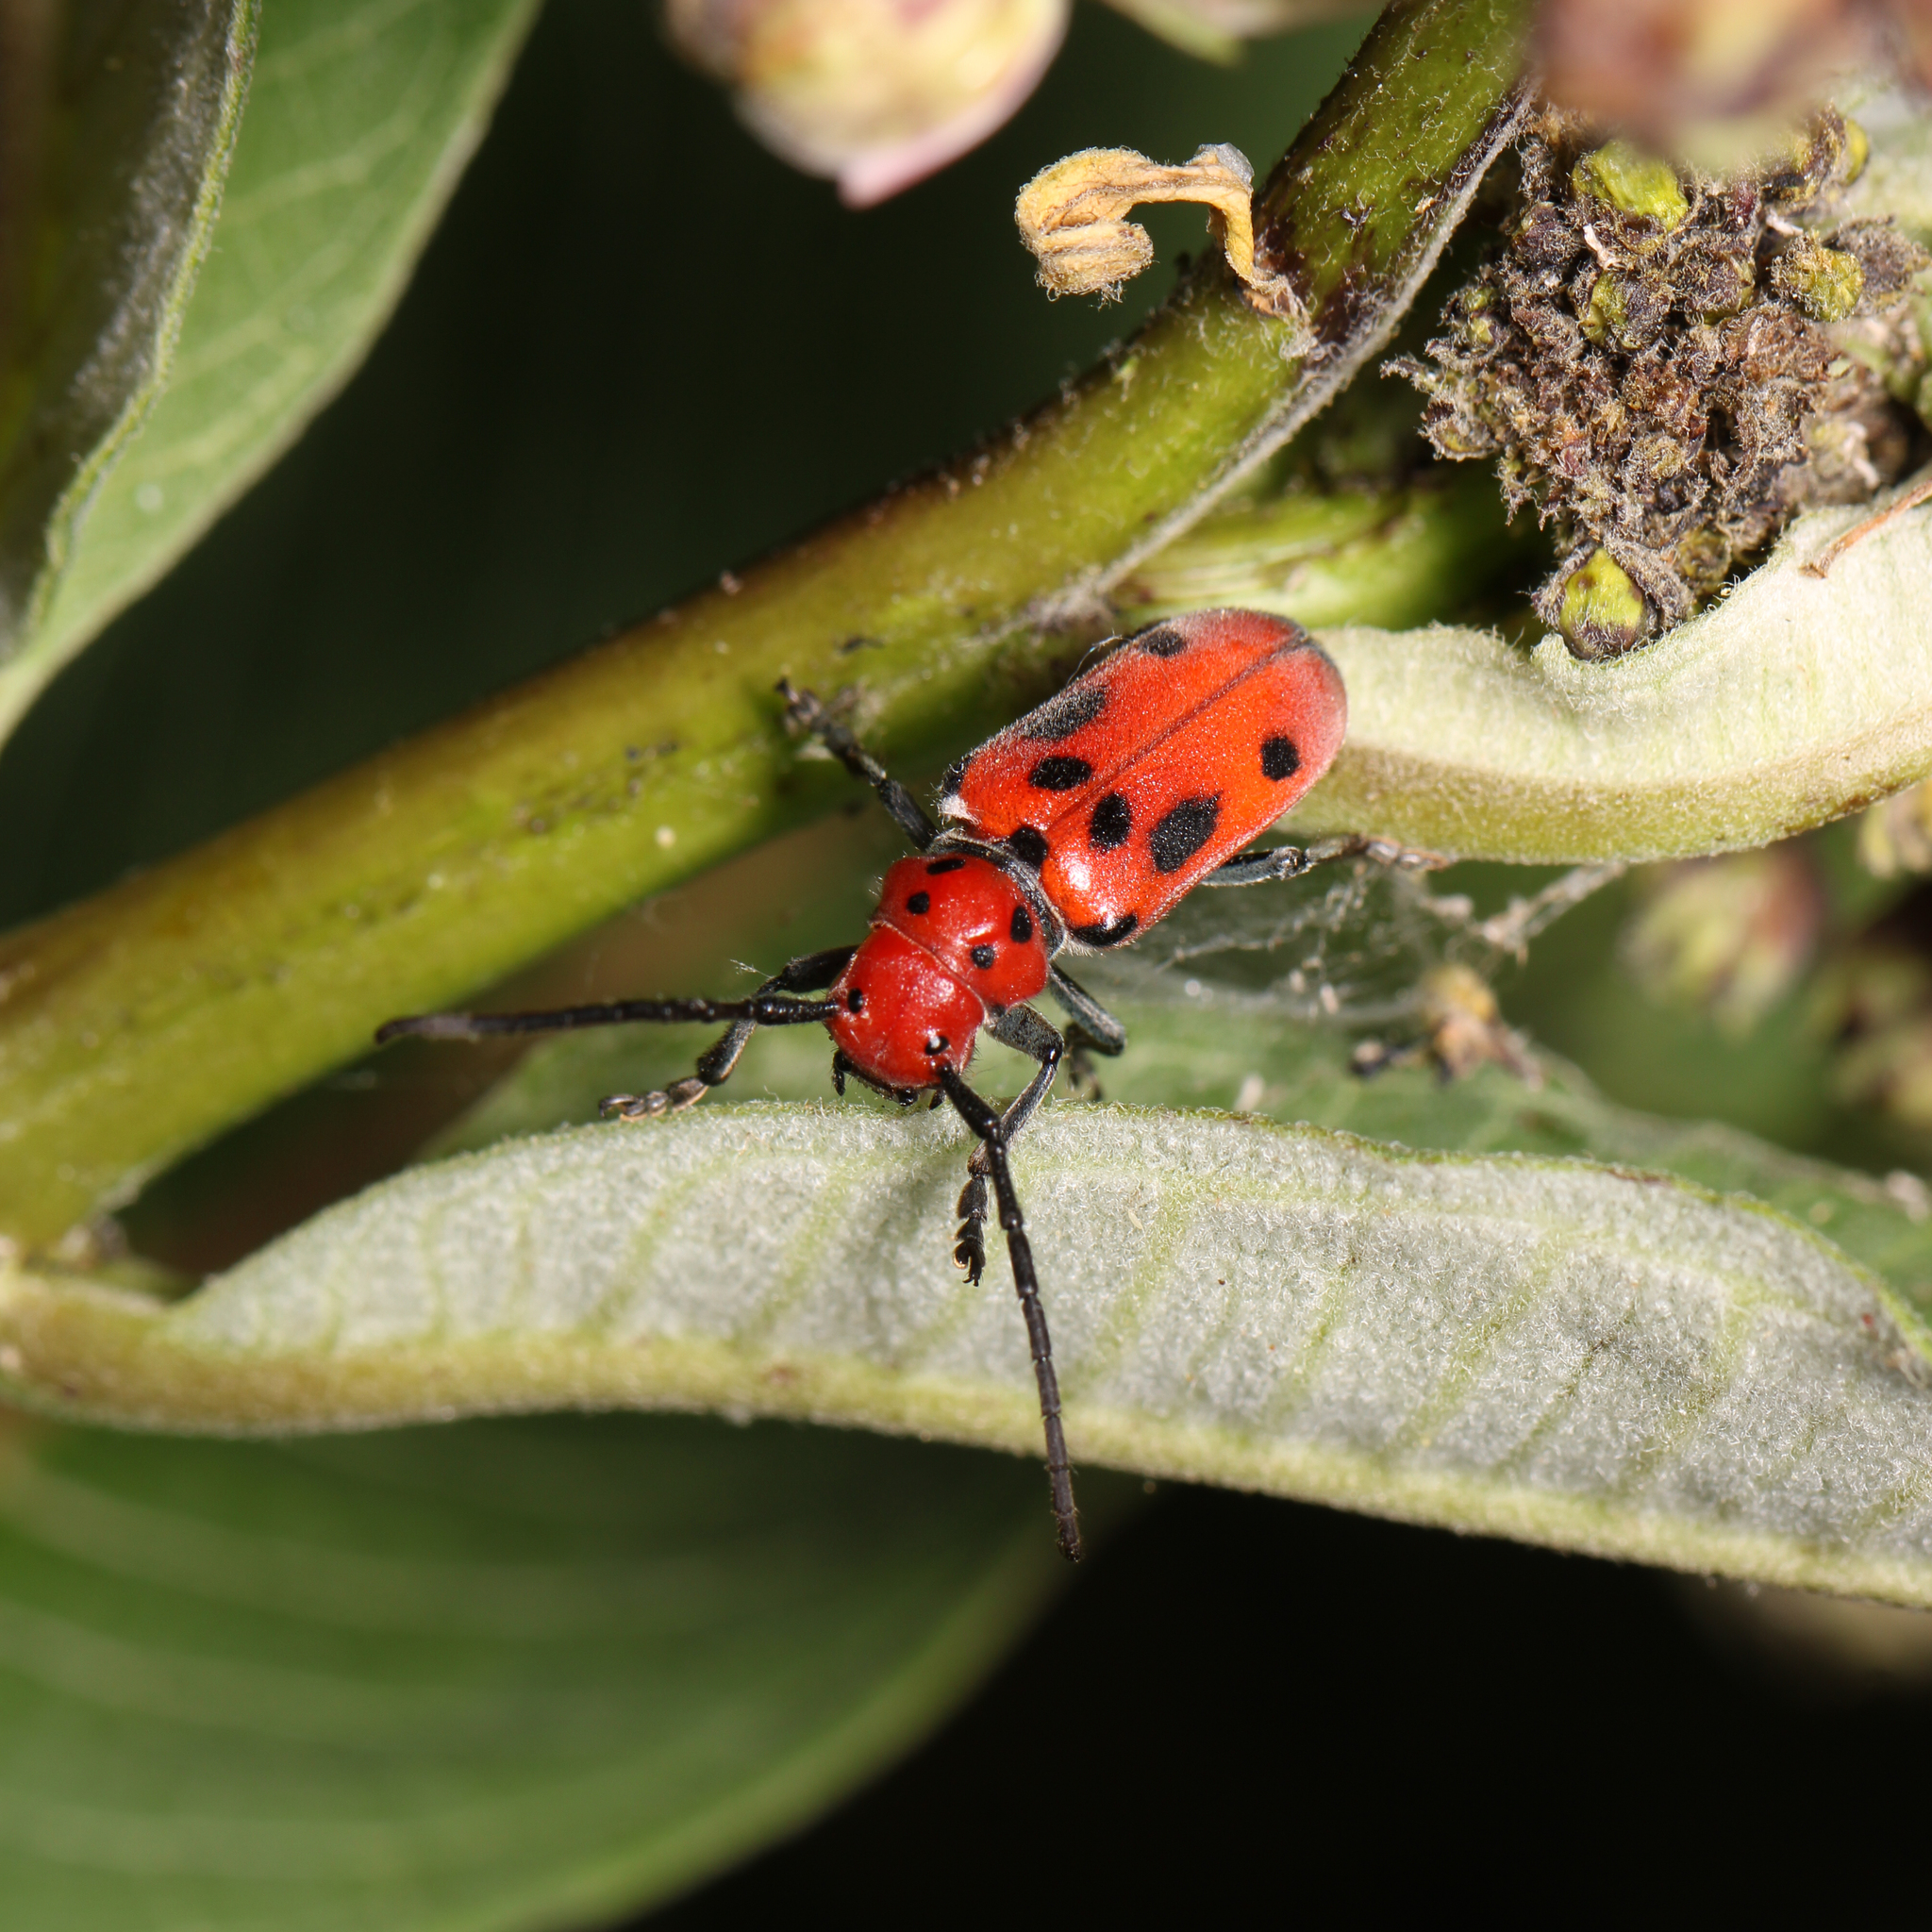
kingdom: Animalia
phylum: Arthropoda
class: Insecta
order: Coleoptera
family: Cerambycidae
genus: Tetraopes
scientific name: Tetraopes tetrophthalmus
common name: Red milkweed beetle
